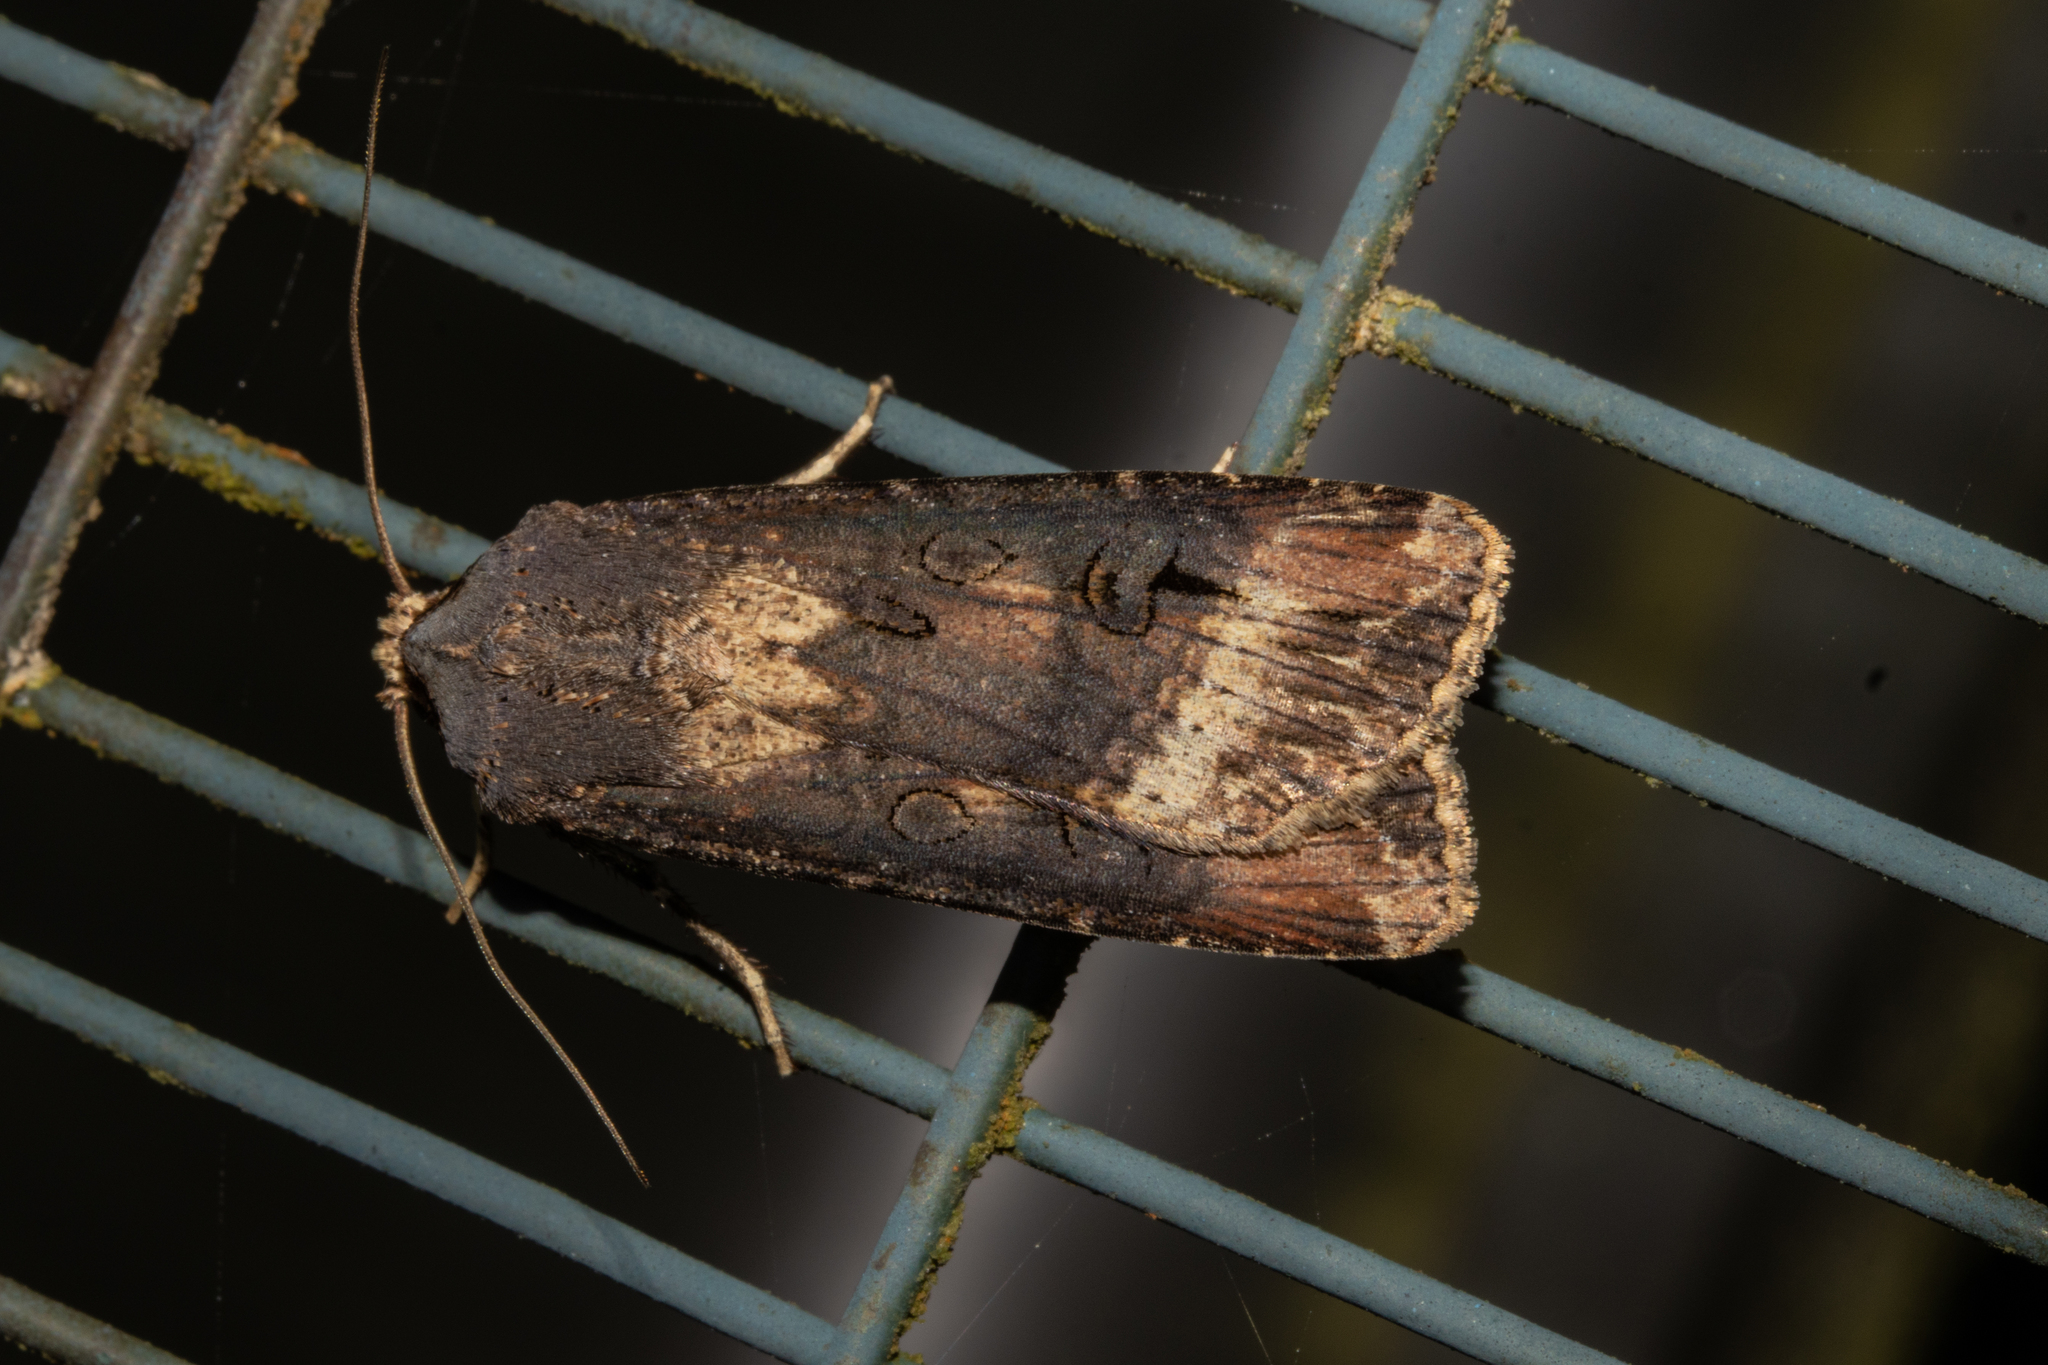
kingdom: Animalia
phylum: Arthropoda
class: Insecta
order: Lepidoptera
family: Noctuidae
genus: Agrotis
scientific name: Agrotis ipsilon
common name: Dark sword-grass
